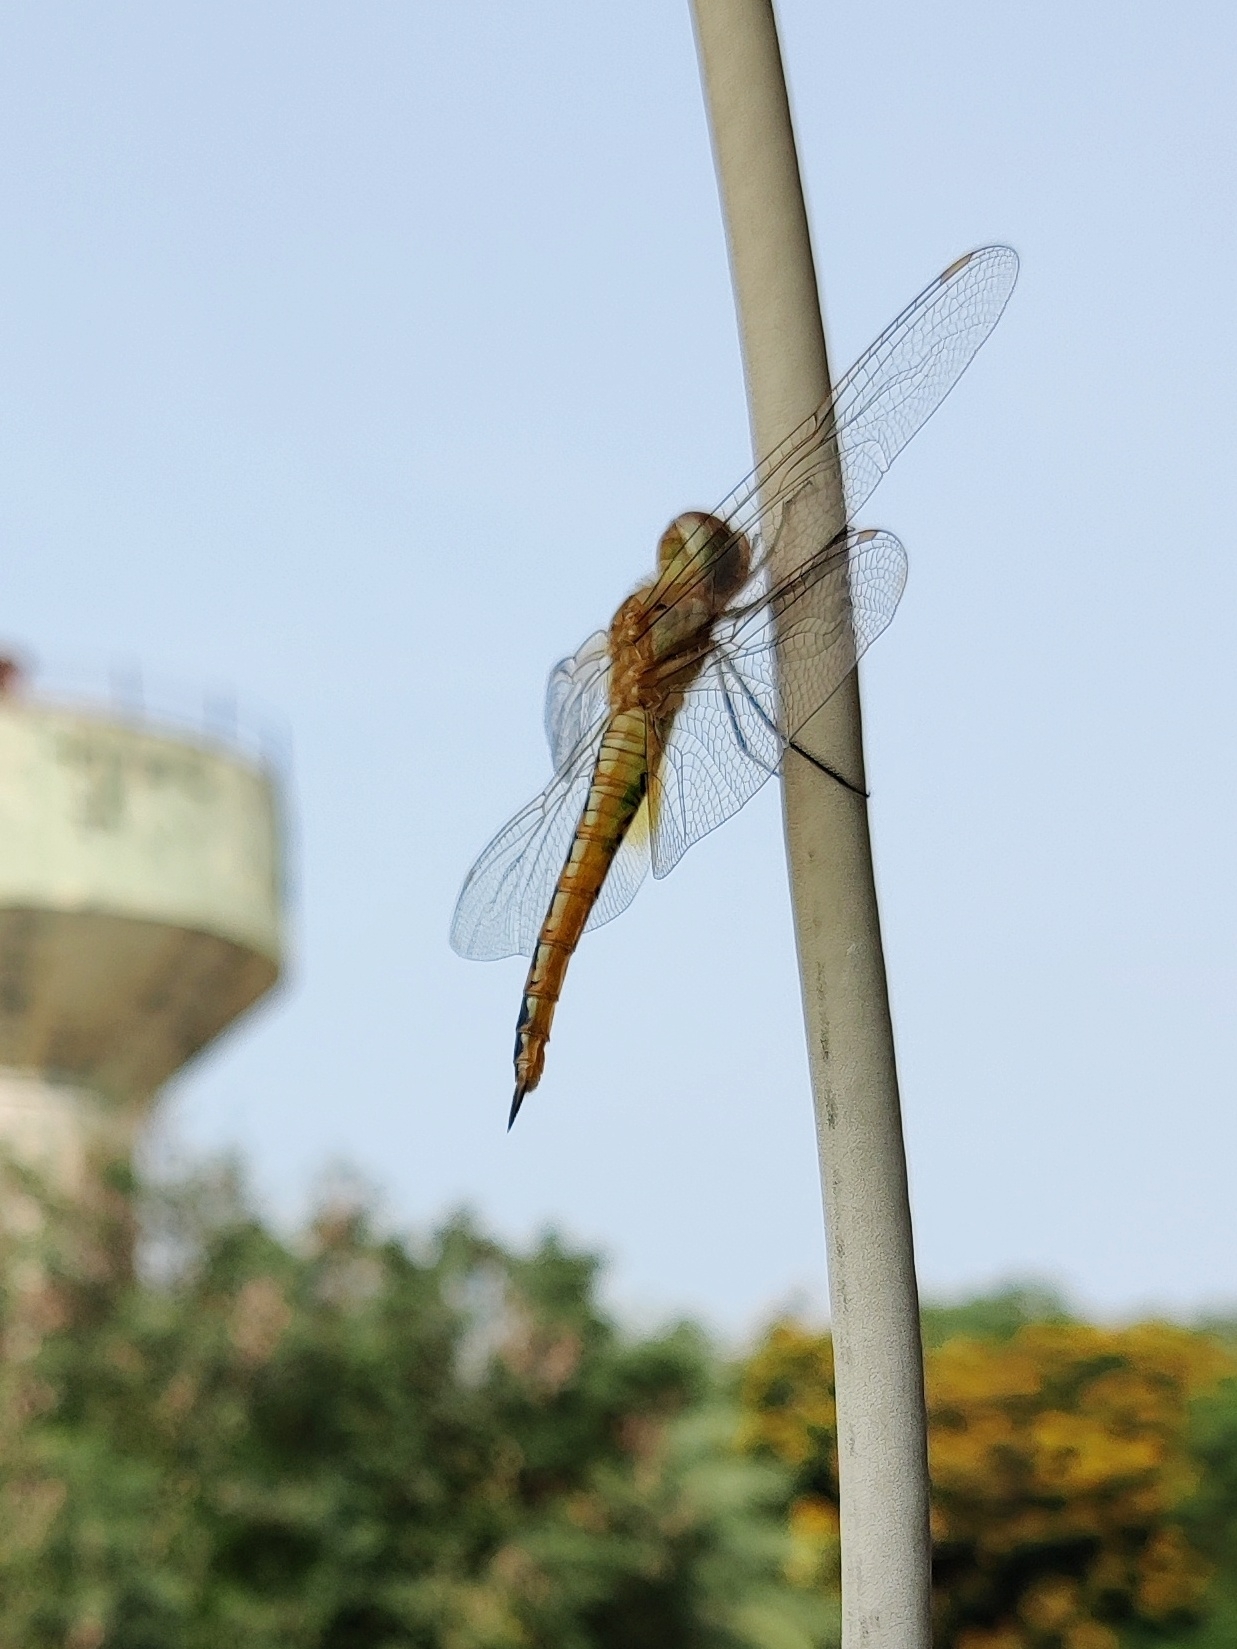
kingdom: Animalia
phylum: Arthropoda
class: Insecta
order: Odonata
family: Libellulidae
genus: Pantala
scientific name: Pantala flavescens
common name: Wandering glider
